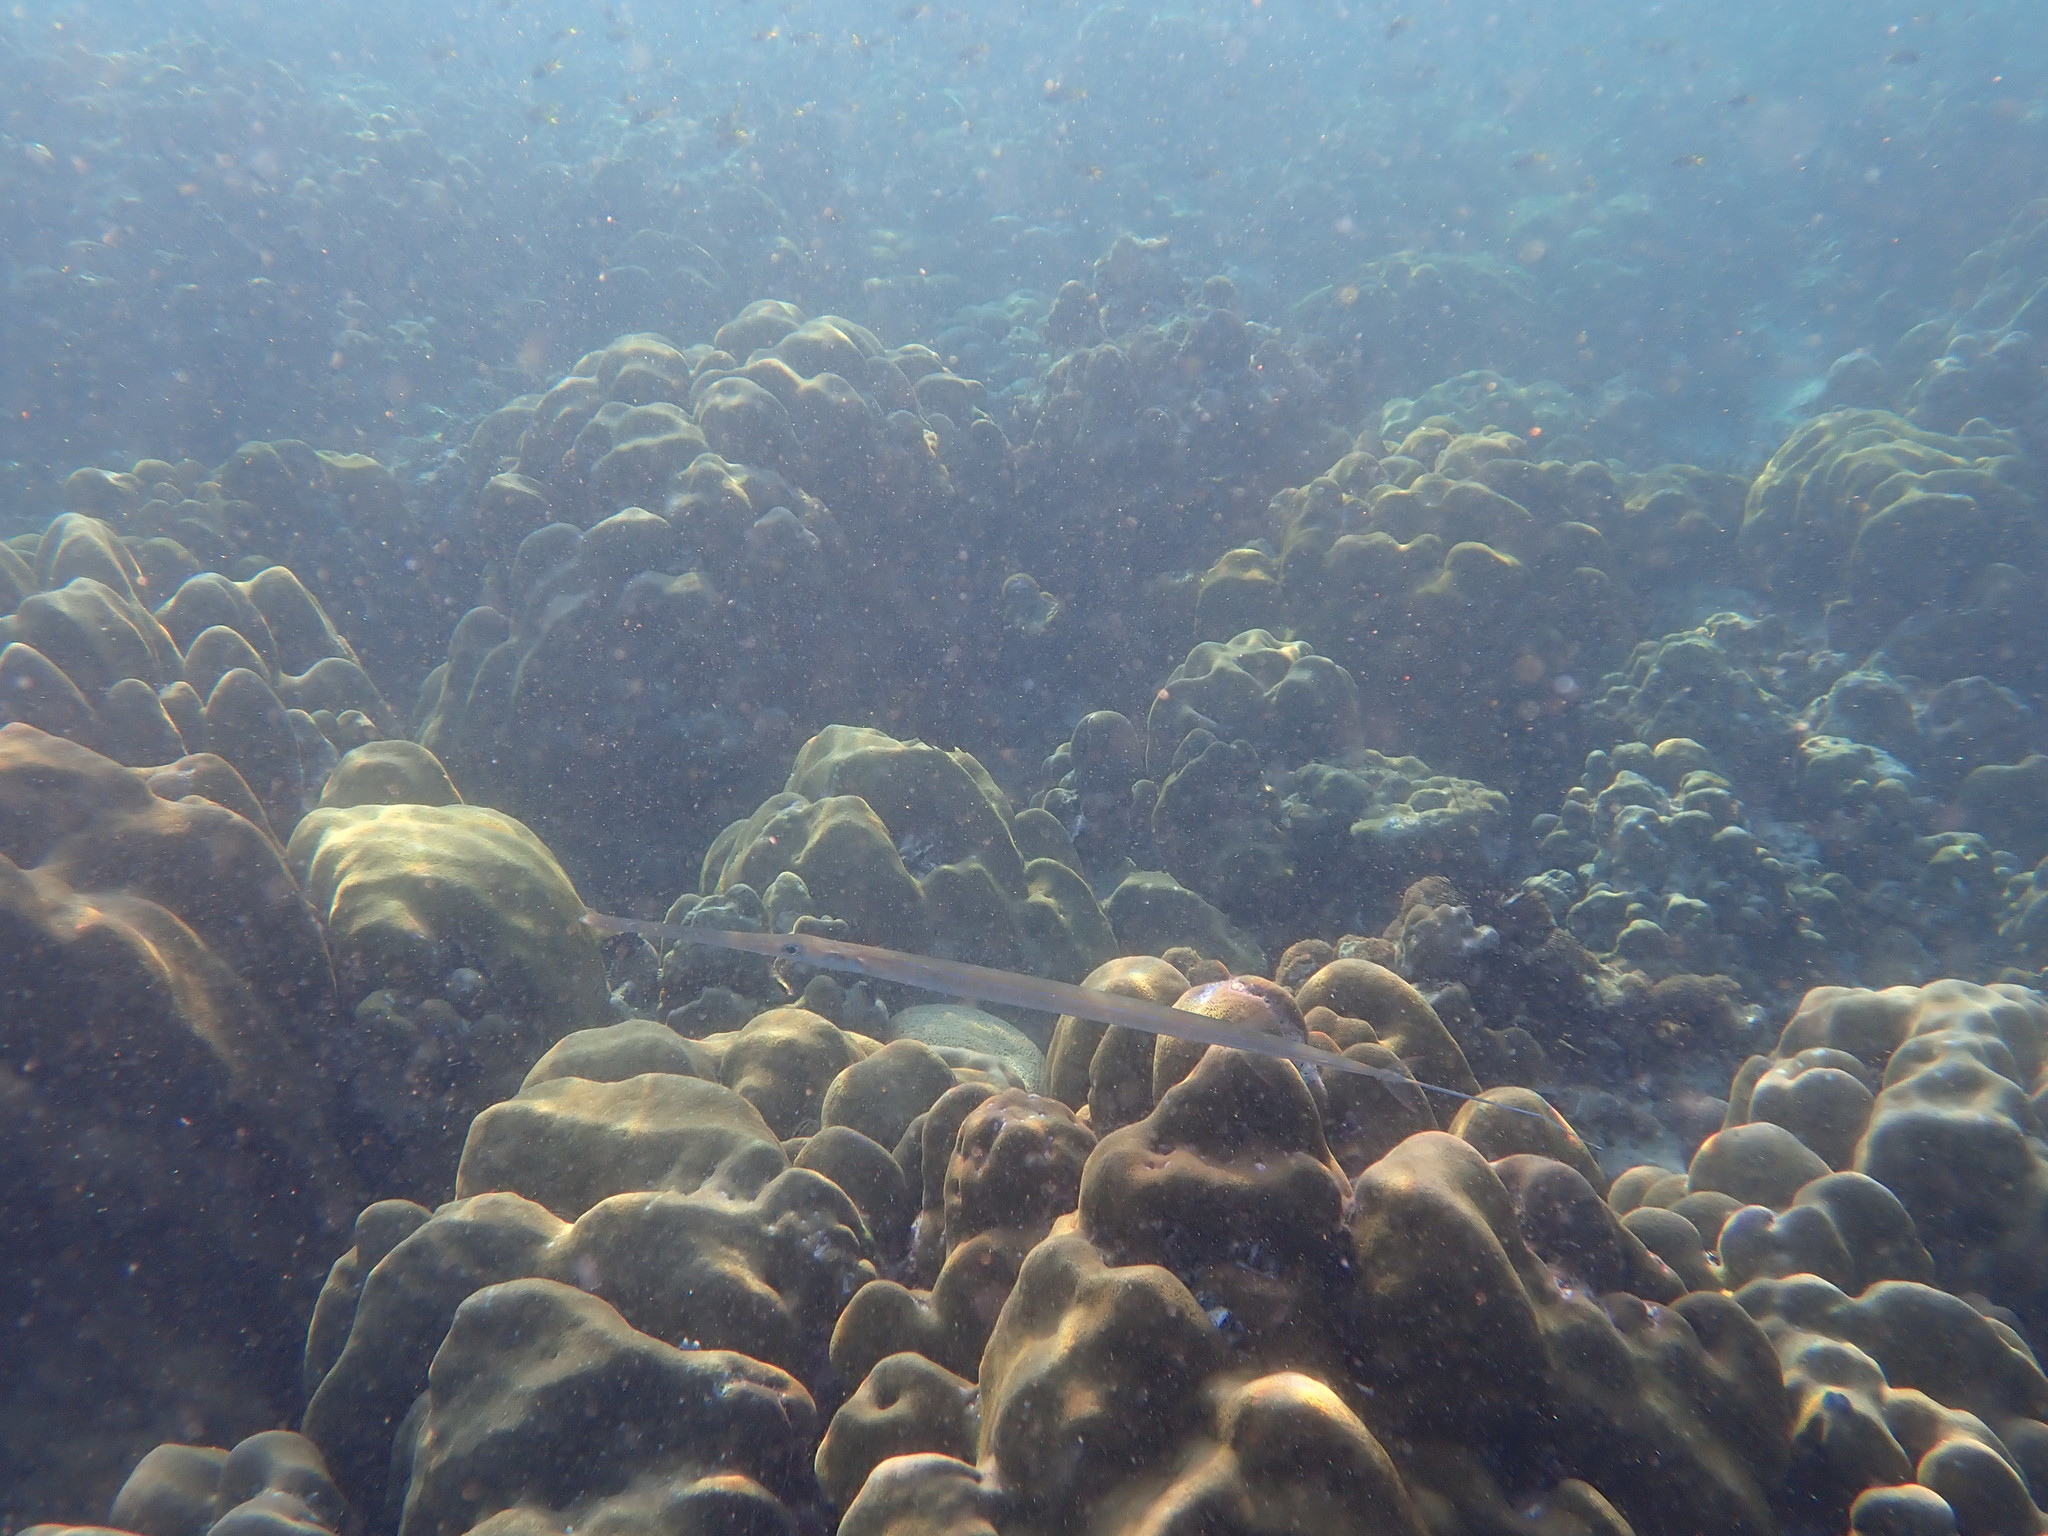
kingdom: Animalia
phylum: Chordata
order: Syngnathiformes
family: Fistulariidae
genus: Fistularia
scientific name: Fistularia commersonii
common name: Bluespotted cornetfish
